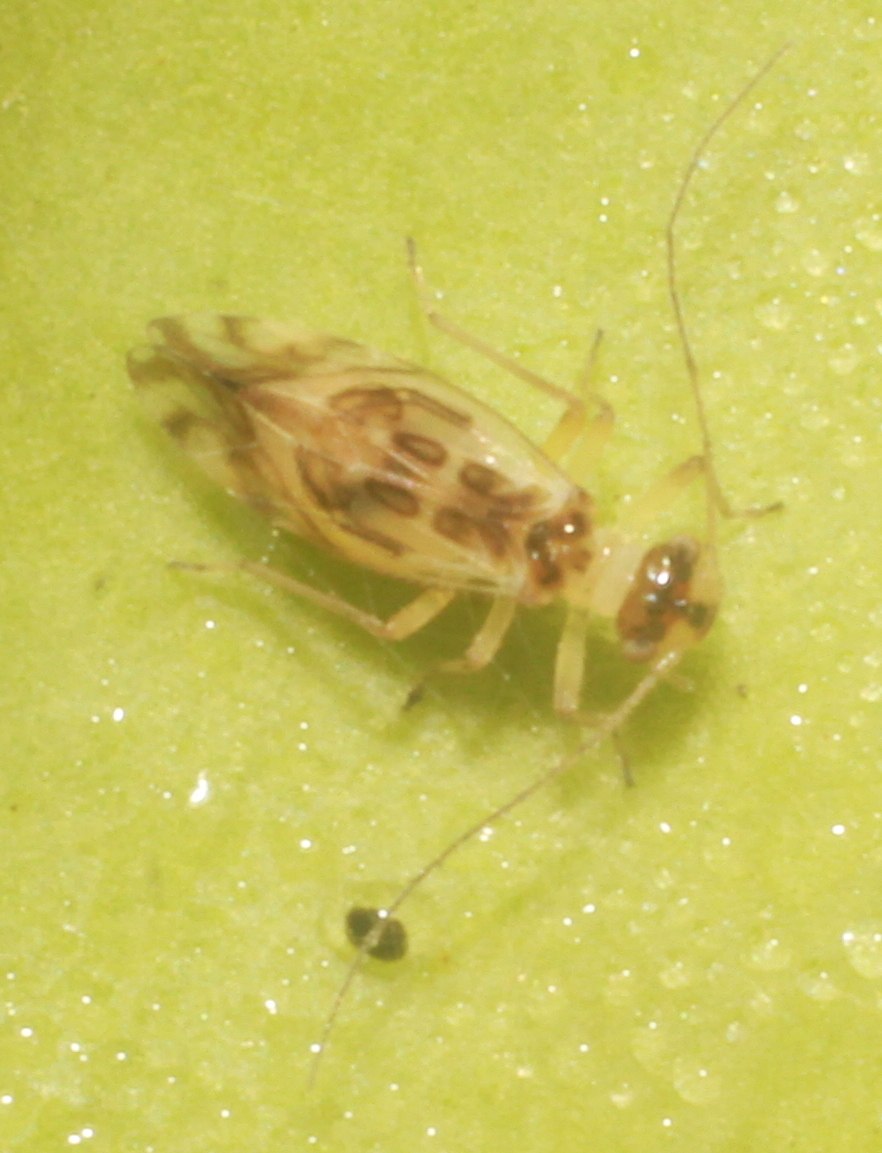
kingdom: Animalia
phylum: Arthropoda
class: Insecta
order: Psocodea
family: Stenopsocidae
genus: Graphopsocus
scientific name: Graphopsocus cruciatus
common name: Lizard bark louse
